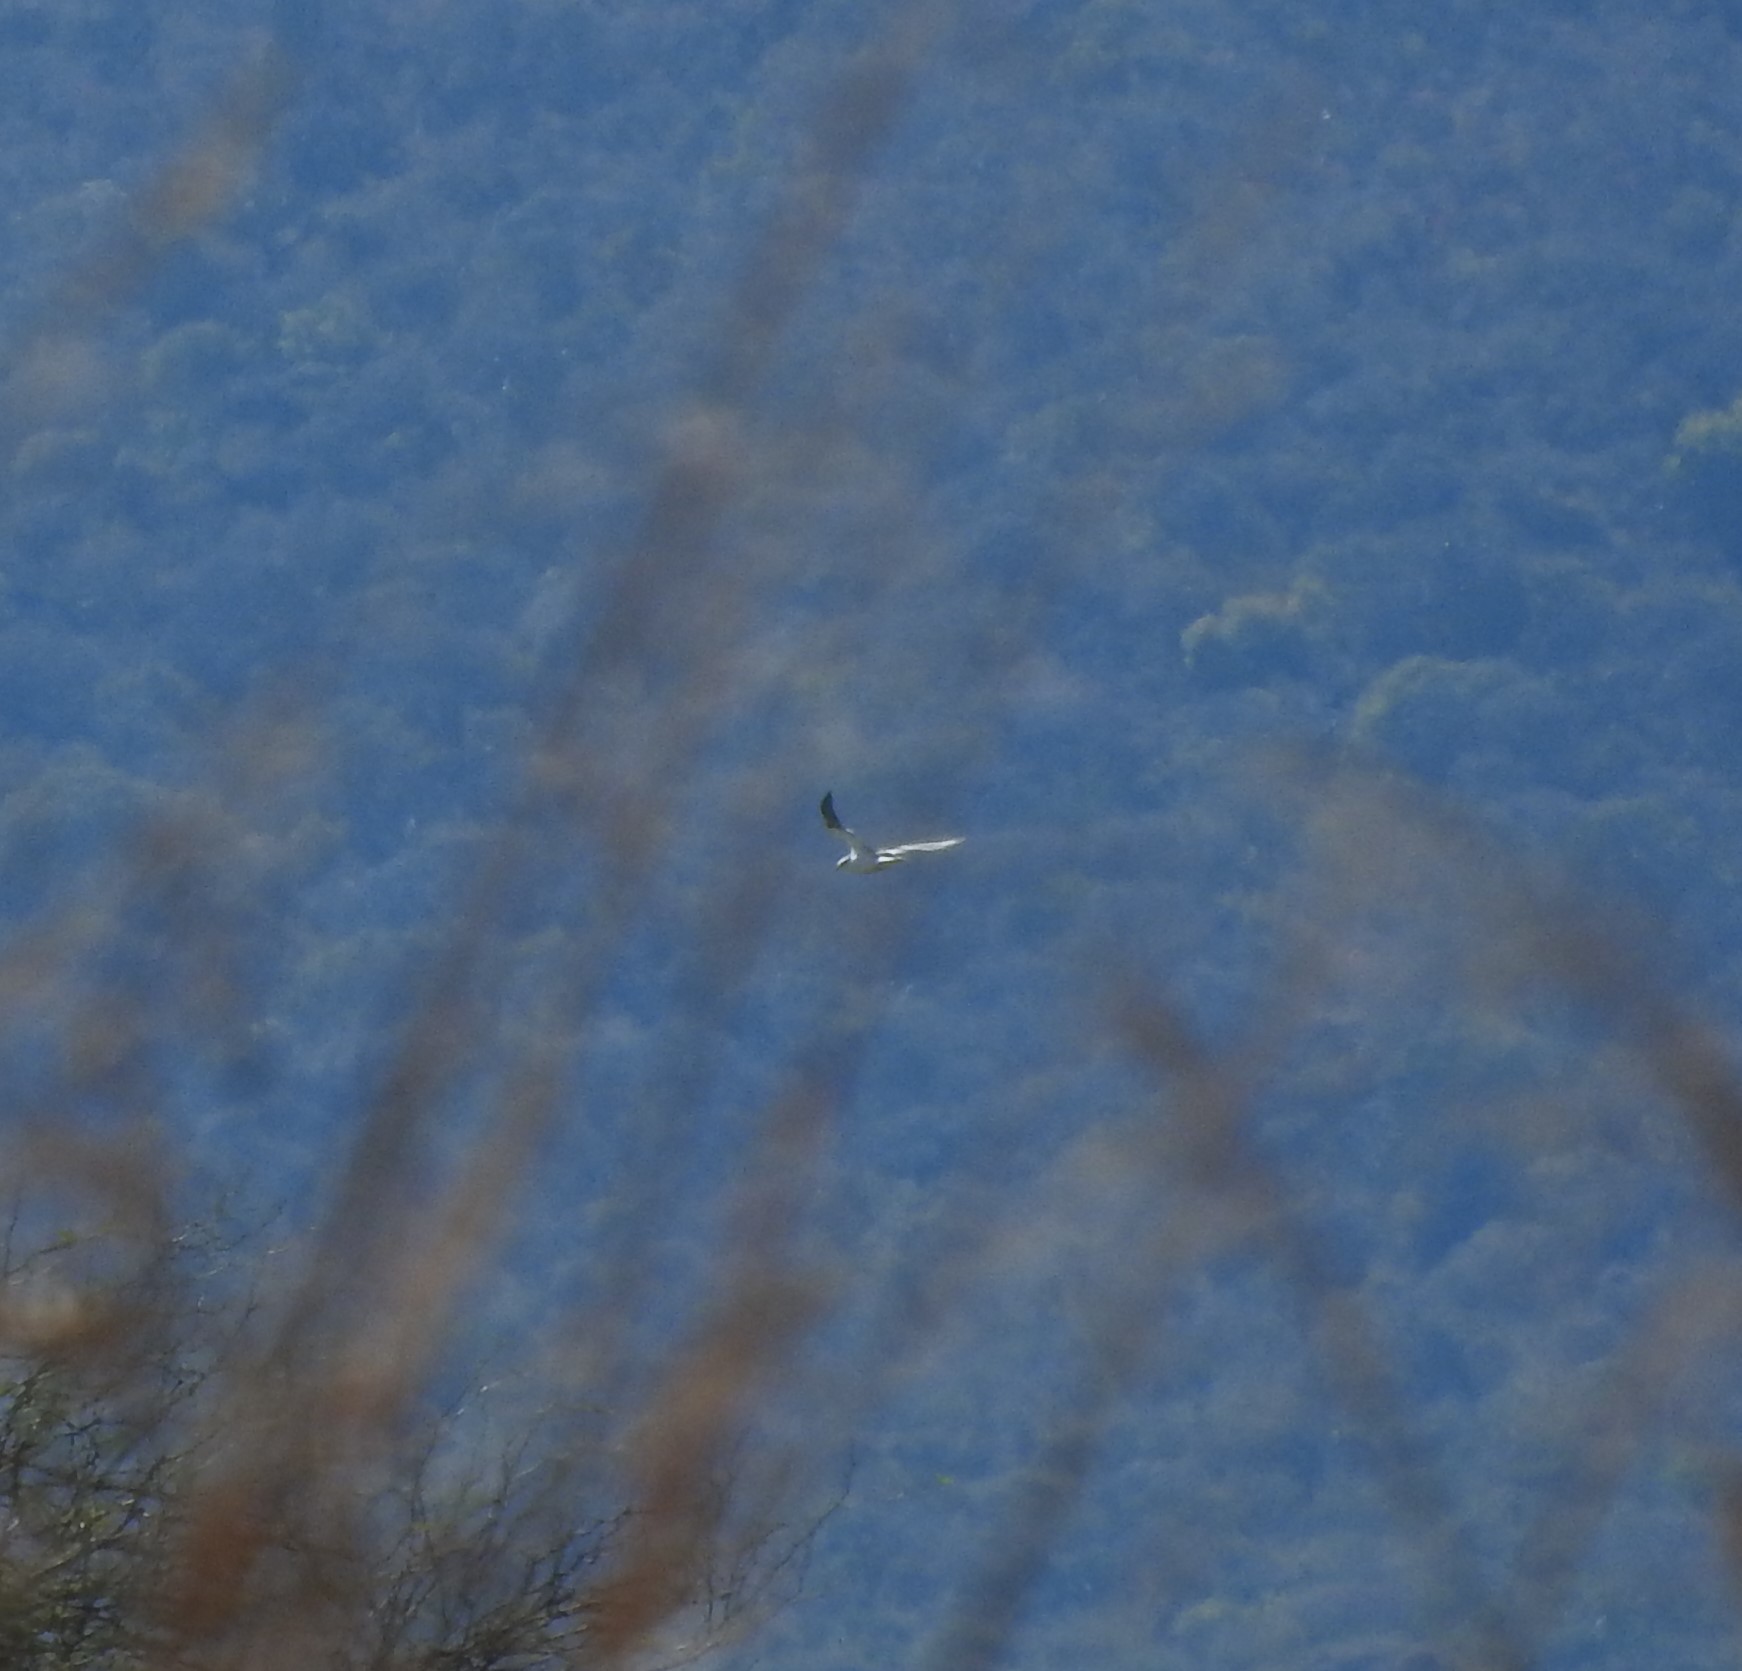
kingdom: Animalia
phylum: Chordata
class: Aves
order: Accipitriformes
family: Accipitridae
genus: Elanus
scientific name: Elanus leucurus
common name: White-tailed kite
